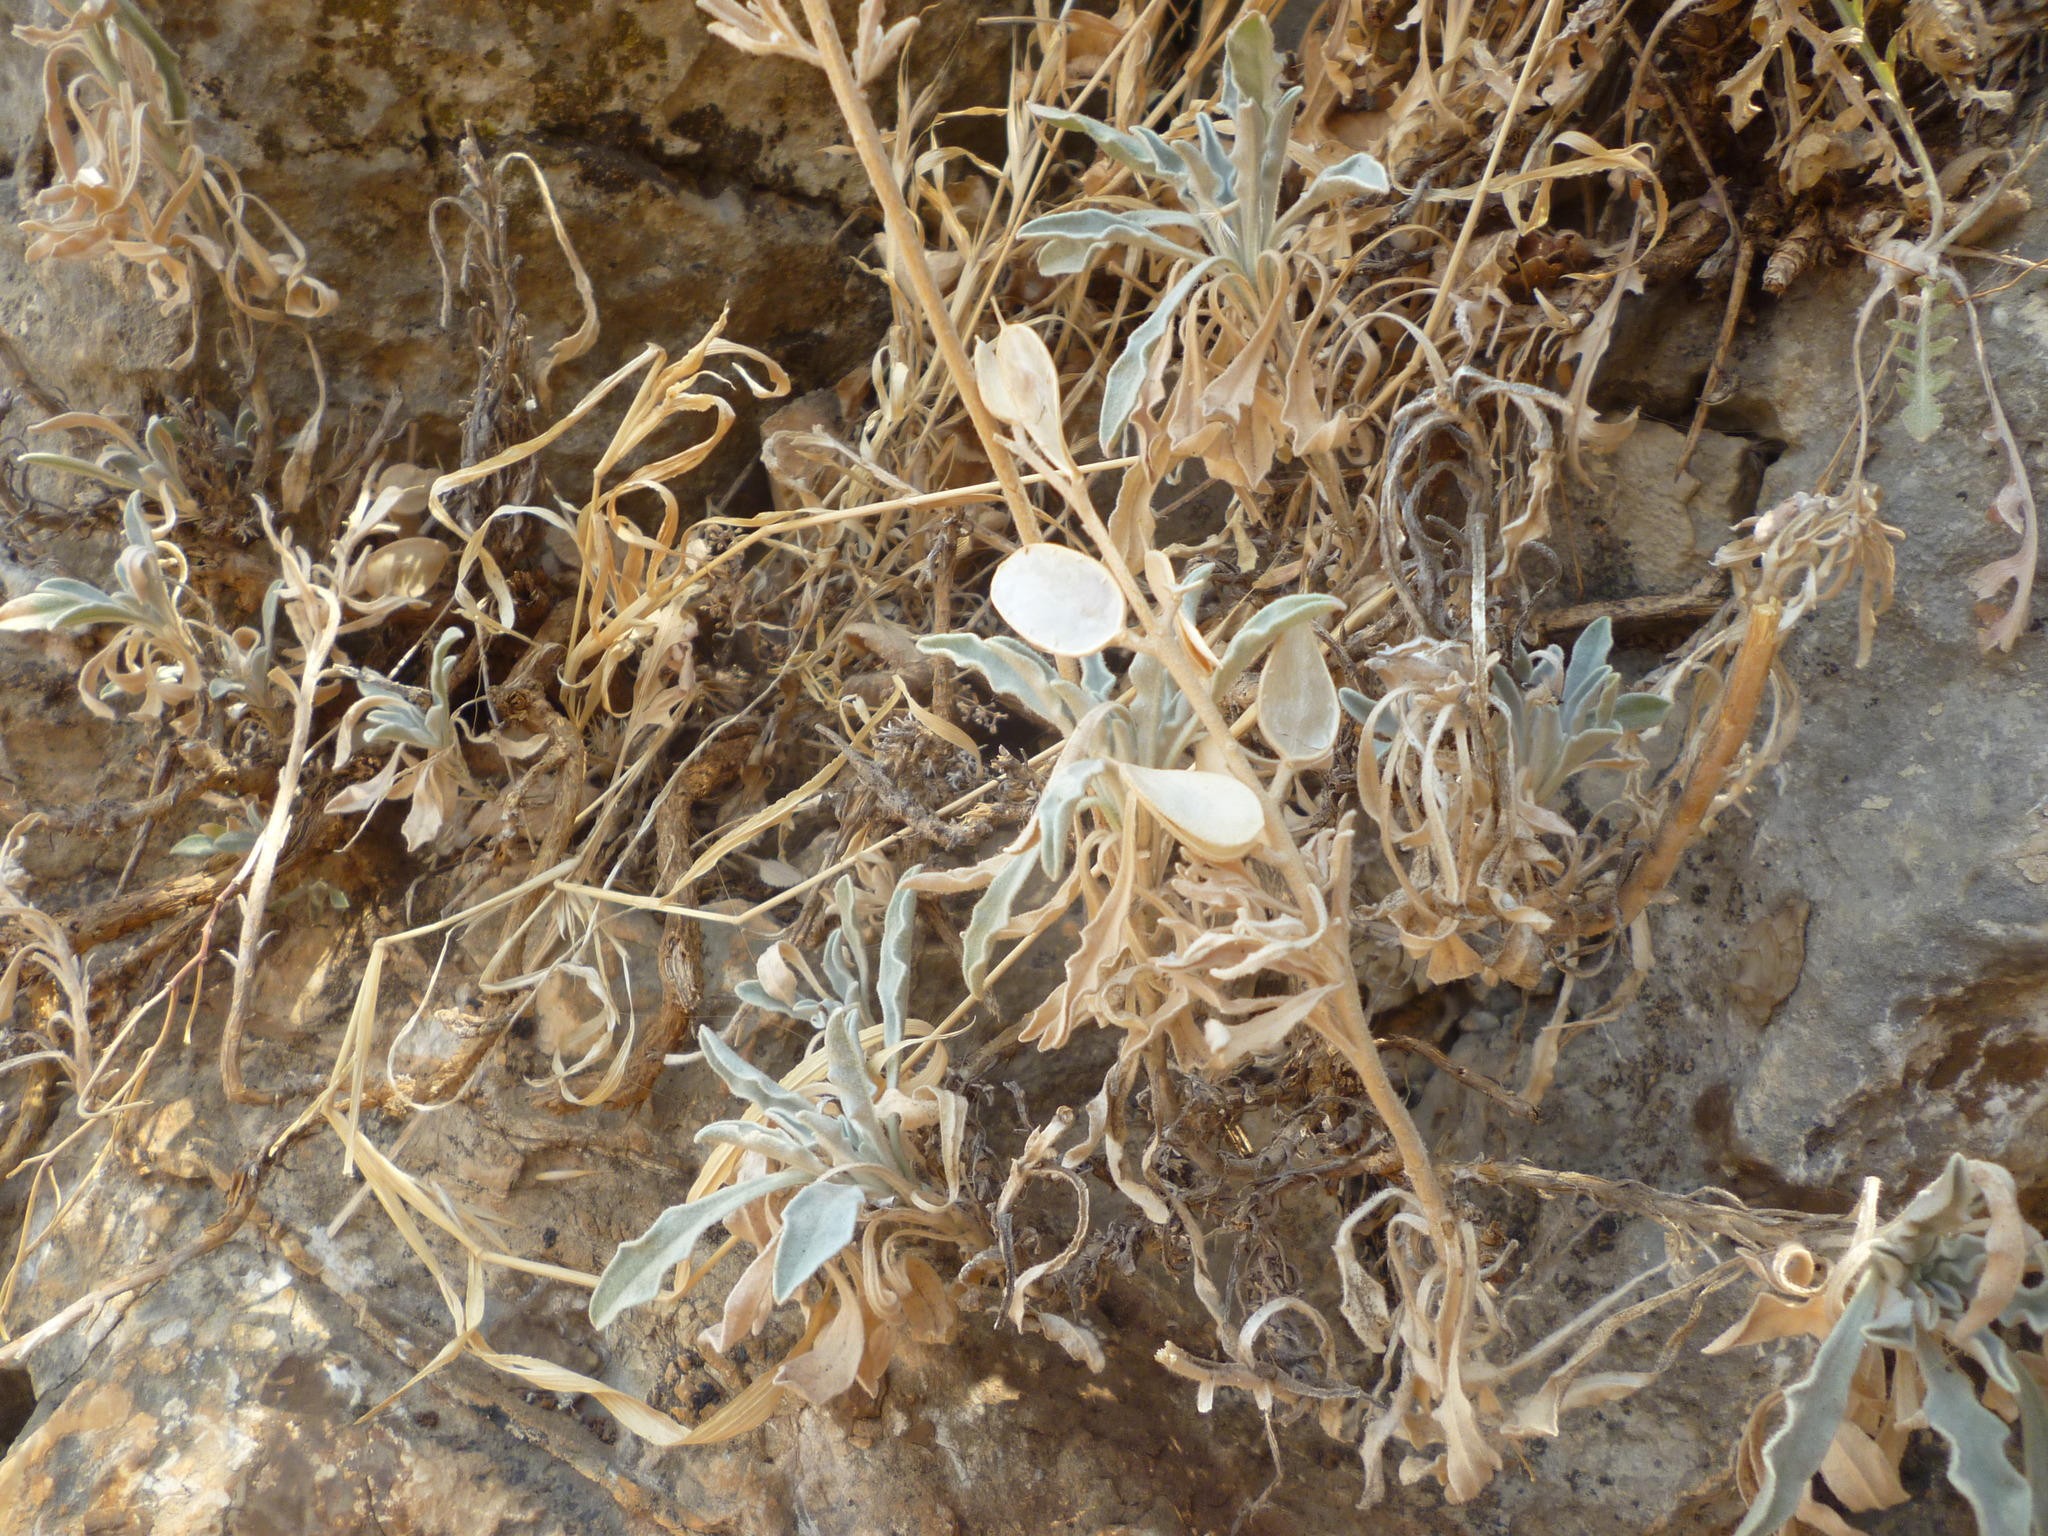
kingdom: Plantae
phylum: Tracheophyta
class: Magnoliopsida
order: Brassicales
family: Brassicaceae
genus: Fibigia
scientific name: Fibigia clypeata
